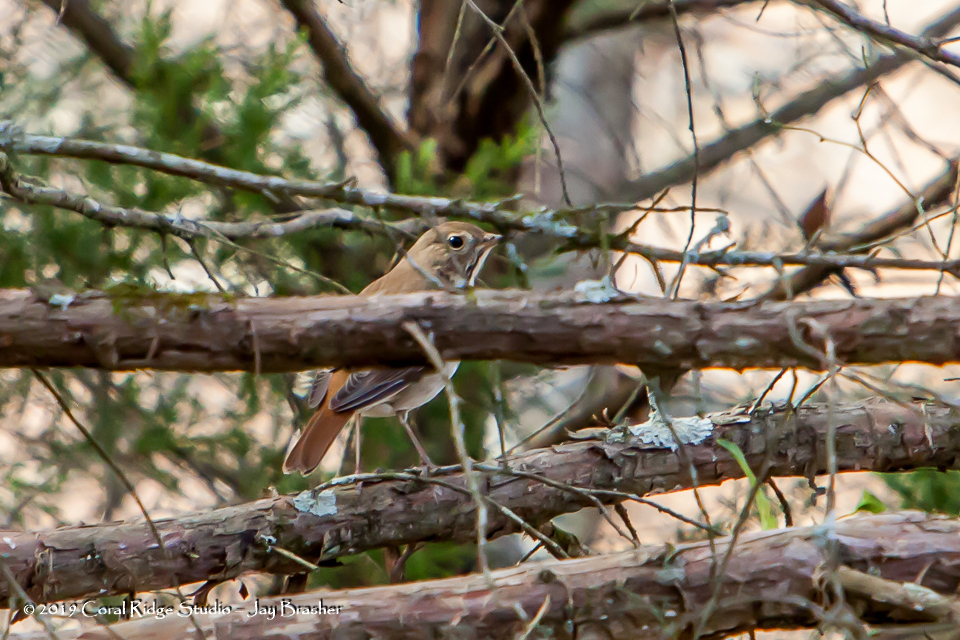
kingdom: Animalia
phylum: Chordata
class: Aves
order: Passeriformes
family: Turdidae
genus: Catharus
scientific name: Catharus guttatus
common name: Hermit thrush
